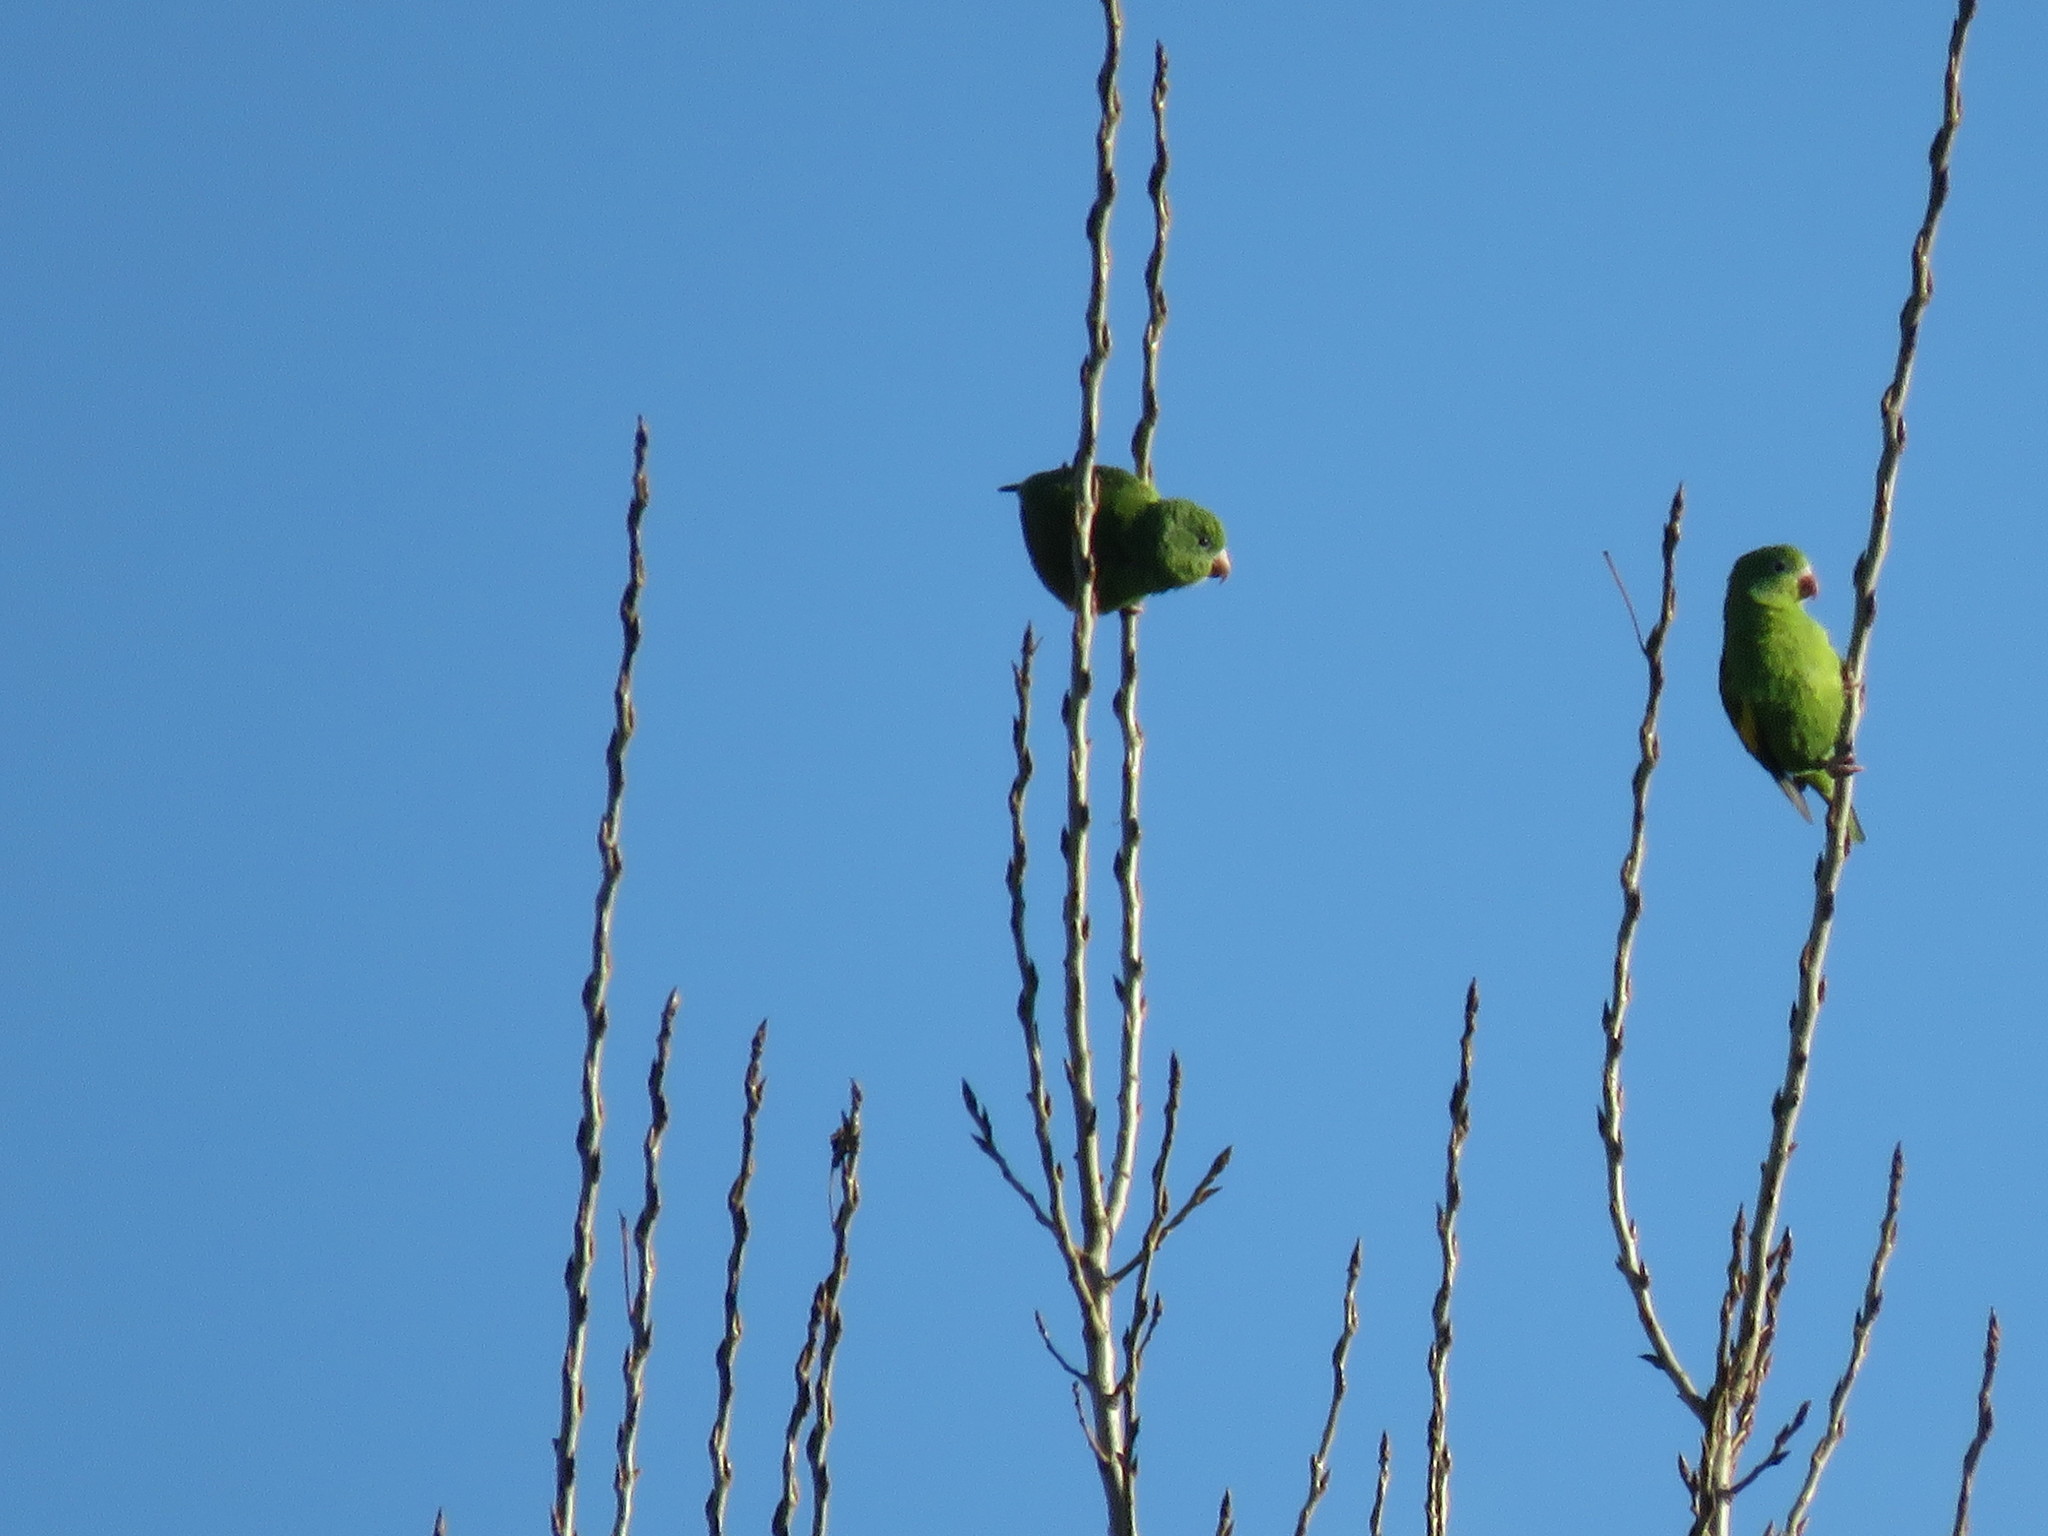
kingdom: Animalia
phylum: Chordata
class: Aves
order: Psittaciformes
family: Psittacidae
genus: Brotogeris
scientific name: Brotogeris chiriri
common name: Yellow-chevroned parakeet
